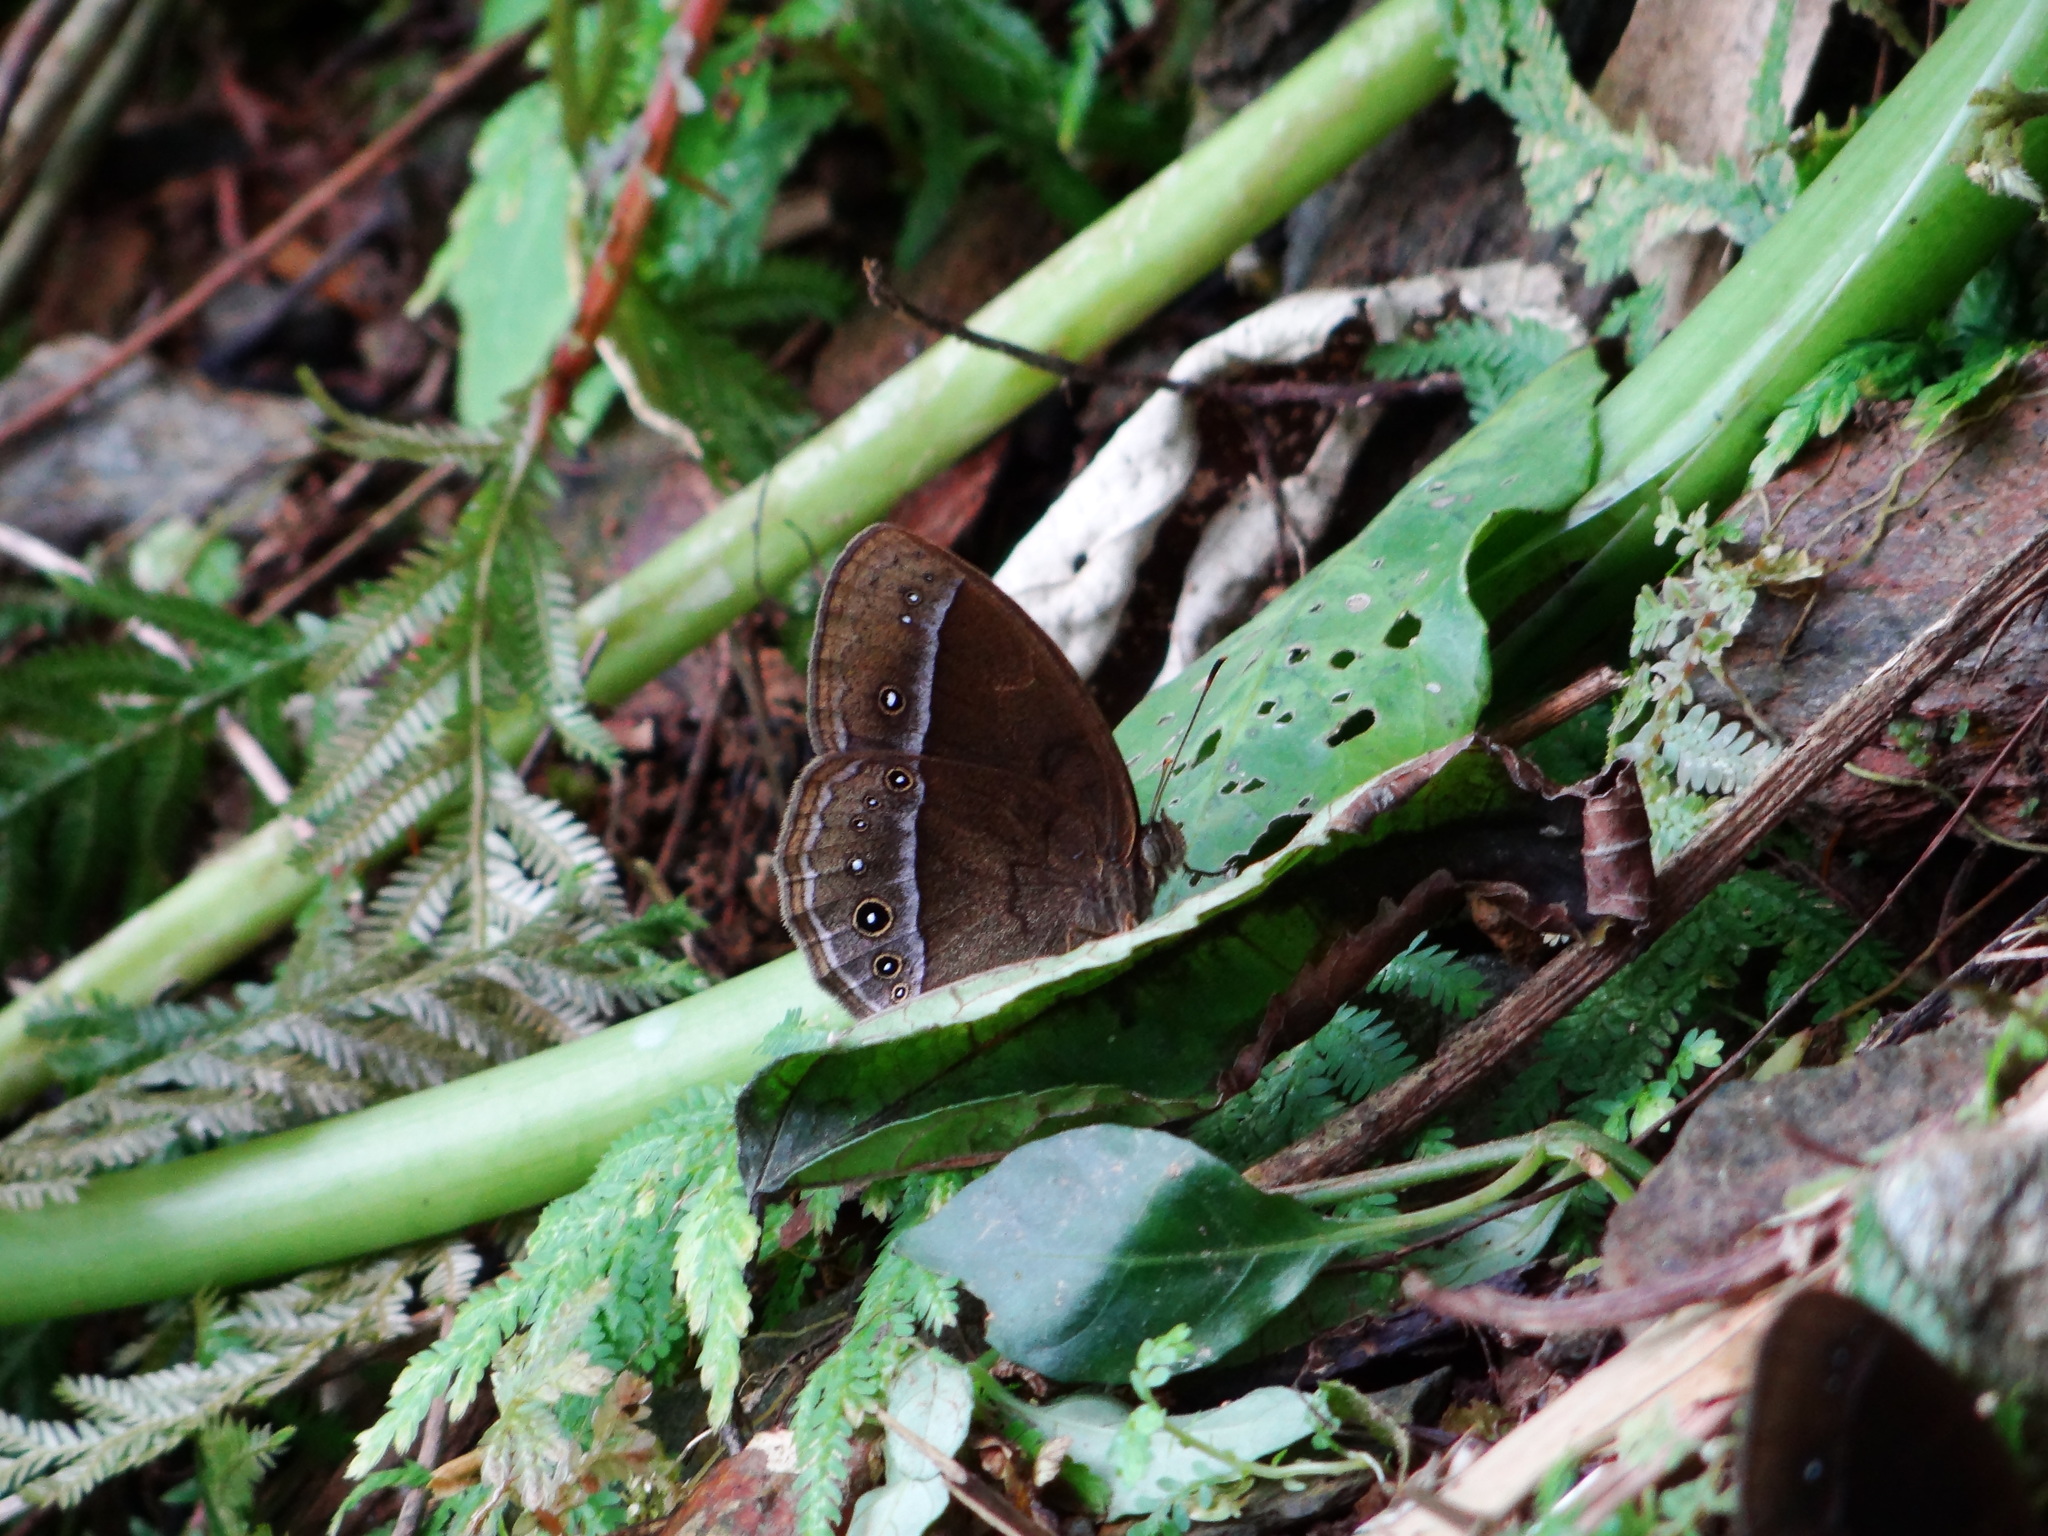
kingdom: Animalia
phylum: Arthropoda
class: Insecta
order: Lepidoptera
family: Nymphalidae
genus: Mycalesis
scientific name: Mycalesis francisca
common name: Lilacine bushbrown
